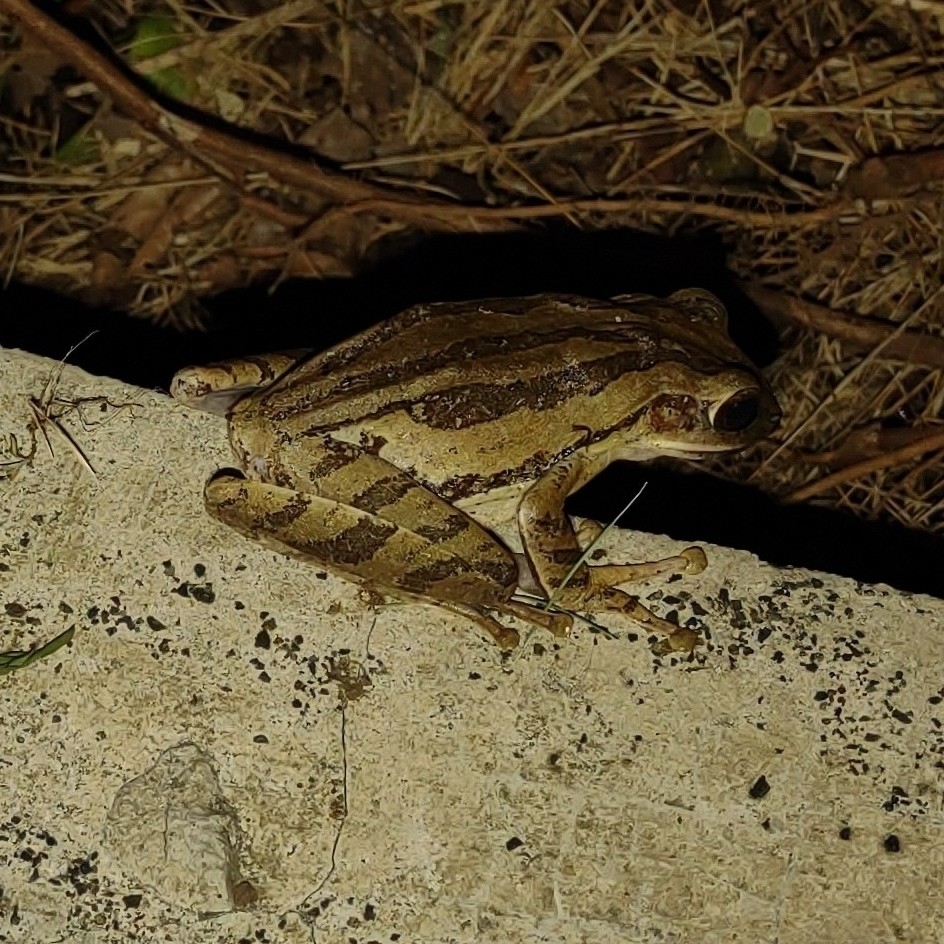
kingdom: Animalia
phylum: Chordata
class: Amphibia
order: Anura
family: Rhacophoridae
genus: Polypedates
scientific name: Polypedates leucomystax
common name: Common tree frog/four-lined tree frog
